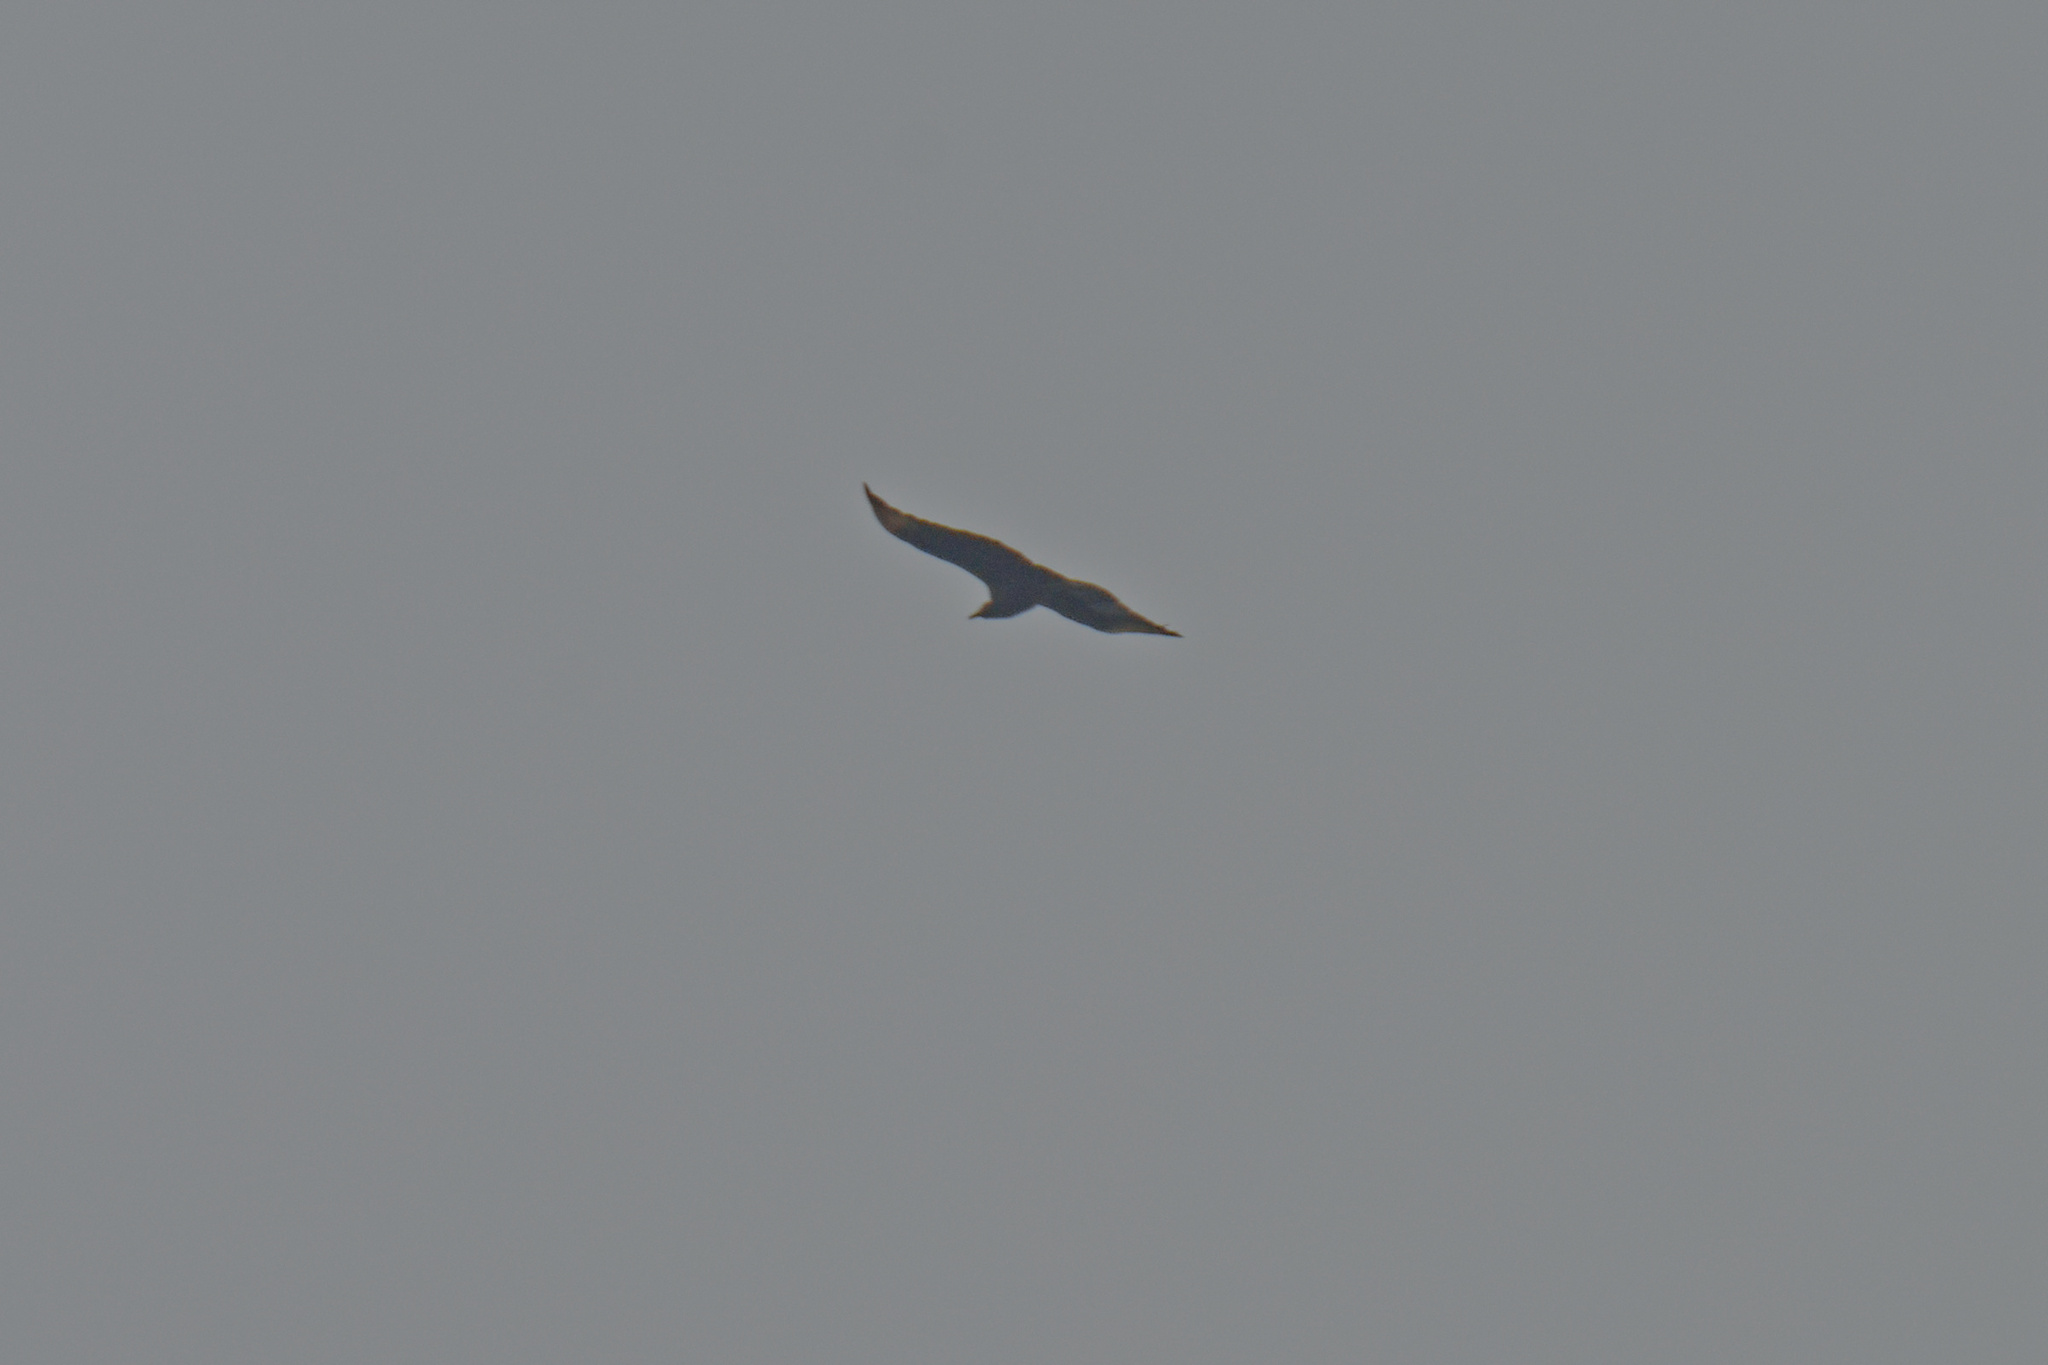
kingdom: Animalia
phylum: Chordata
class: Aves
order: Accipitriformes
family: Cathartidae
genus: Coragyps
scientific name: Coragyps atratus
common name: Black vulture
